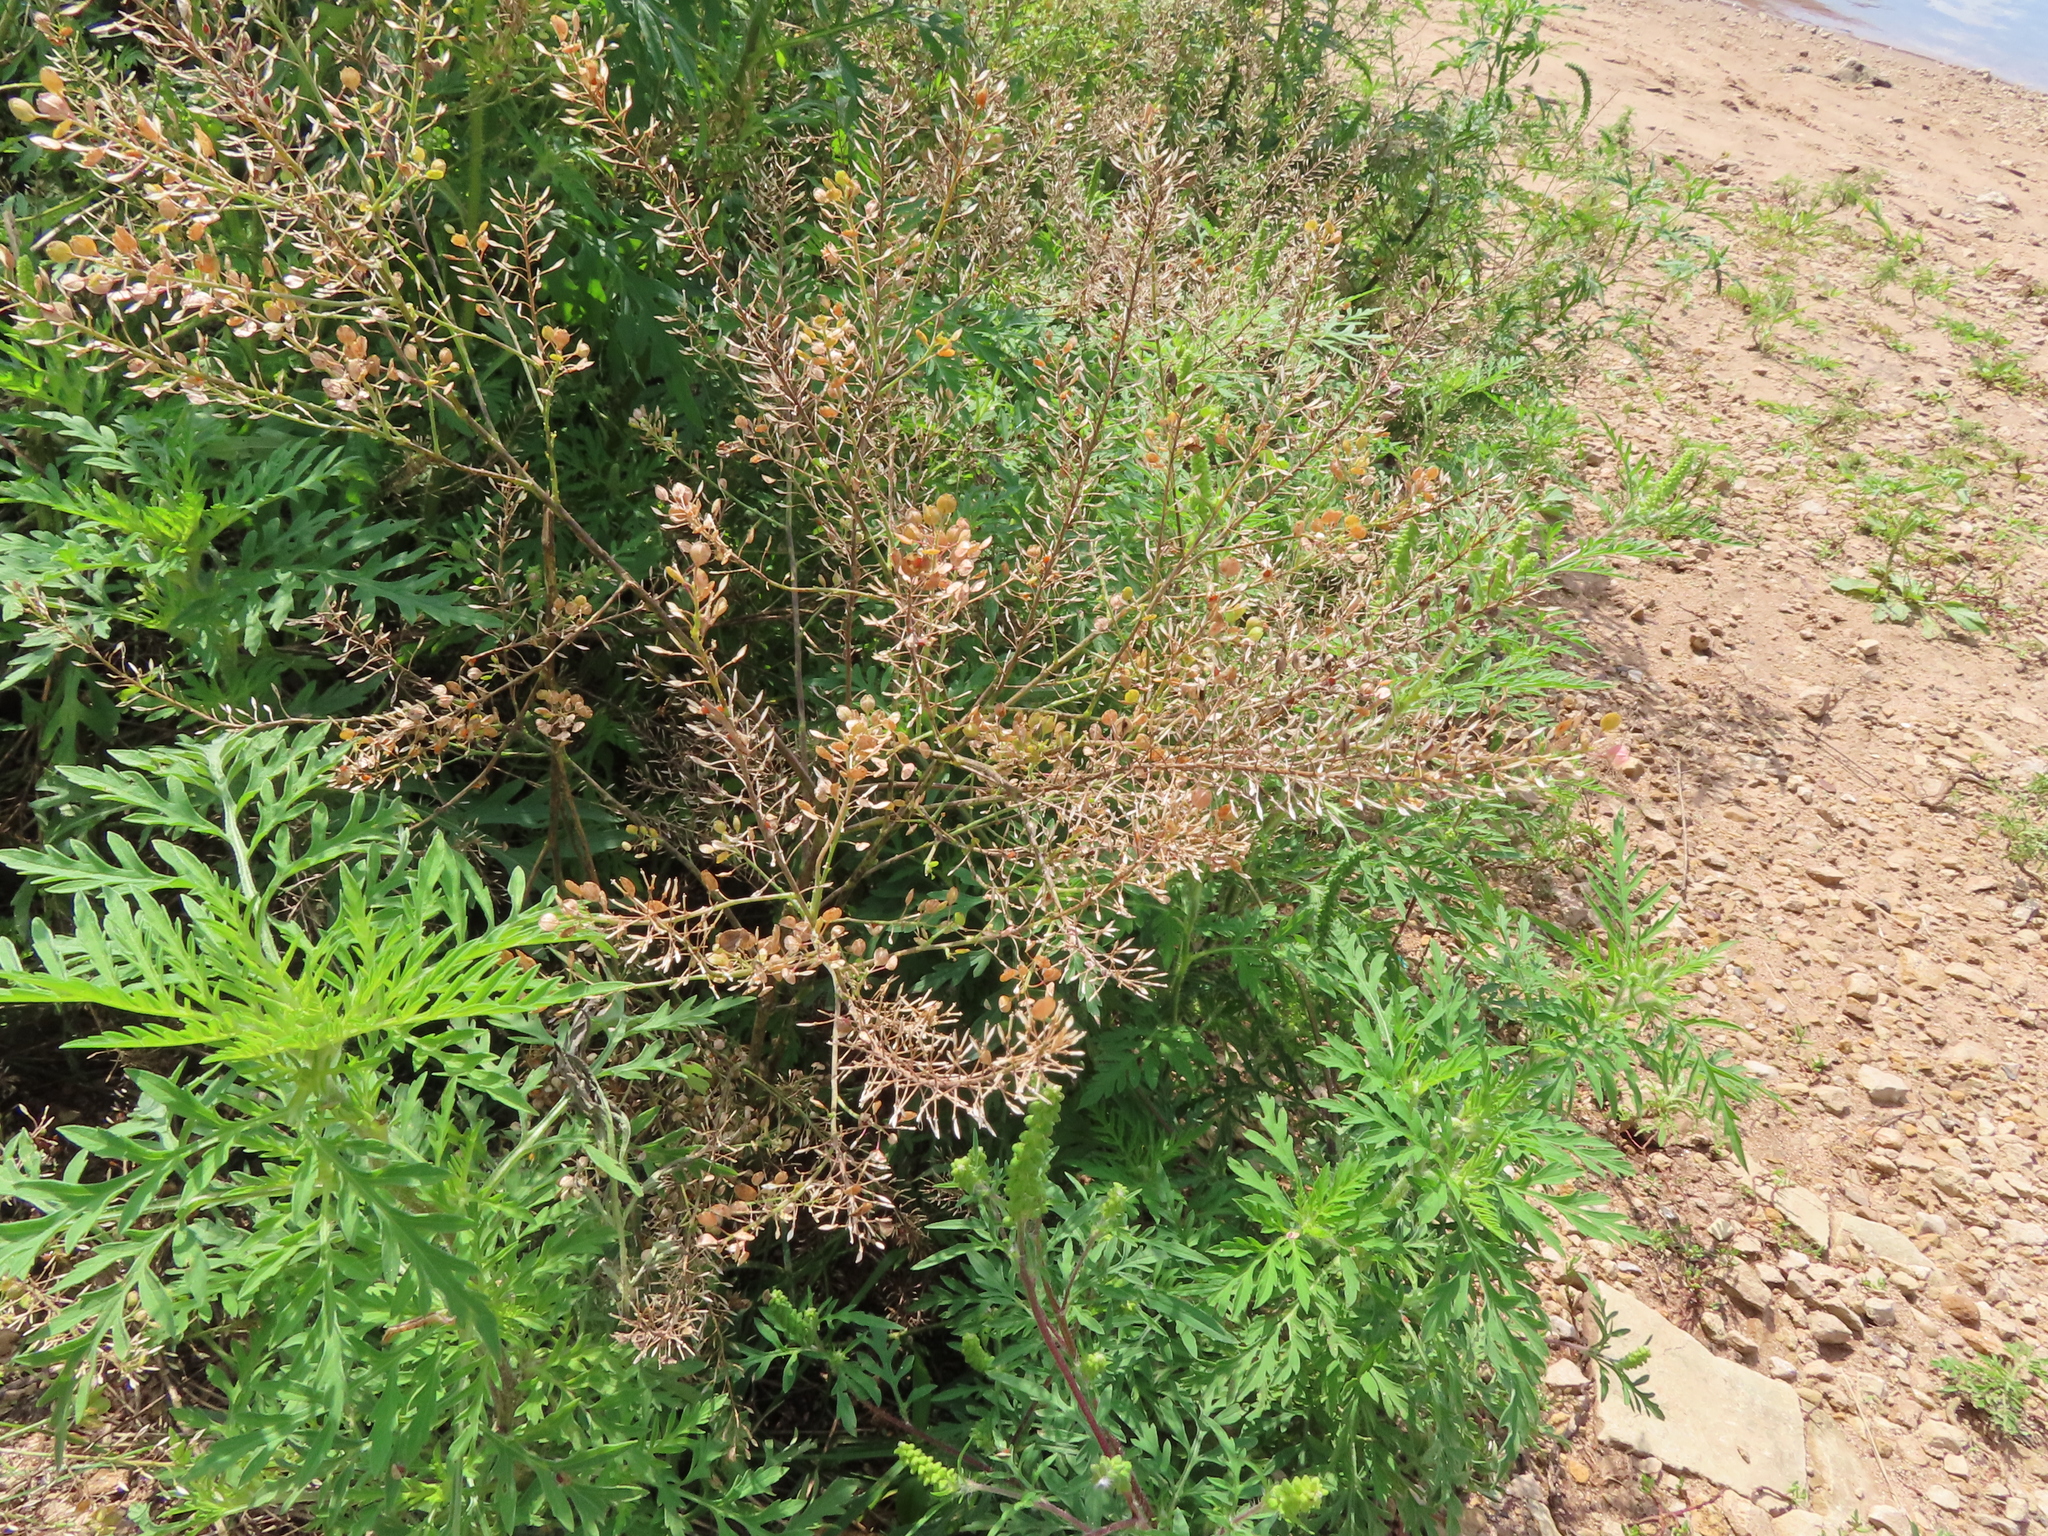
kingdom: Plantae
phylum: Tracheophyta
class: Magnoliopsida
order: Brassicales
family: Brassicaceae
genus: Lepidium
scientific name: Lepidium densiflorum
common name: Miner's pepperwort
